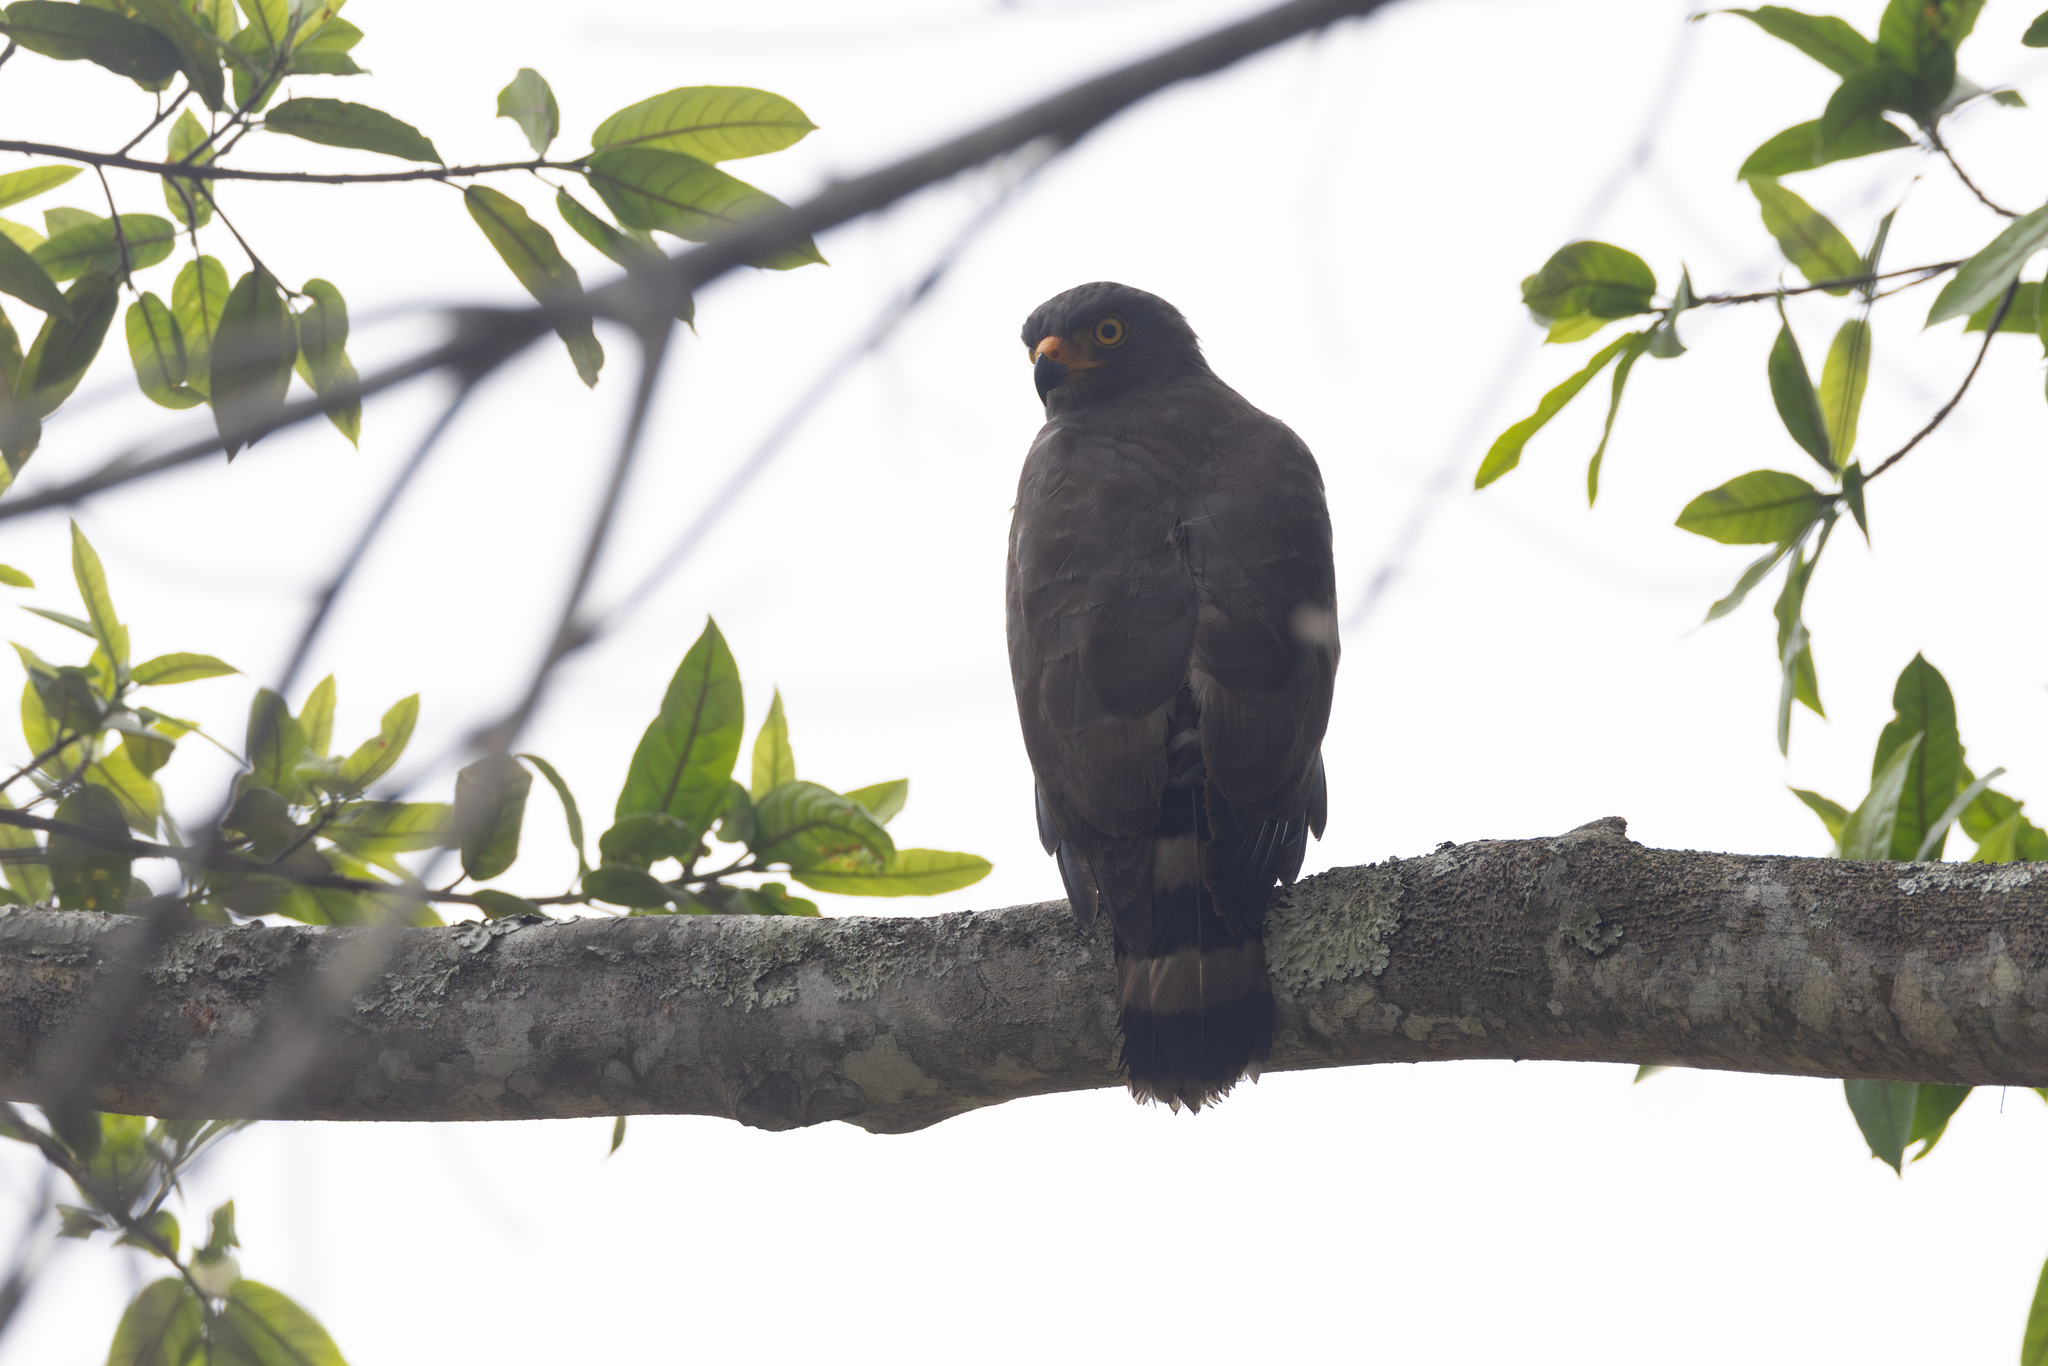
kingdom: Animalia
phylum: Chordata
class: Aves
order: Accipitriformes
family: Accipitridae
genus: Rupornis
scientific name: Rupornis magnirostris
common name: Roadside hawk
